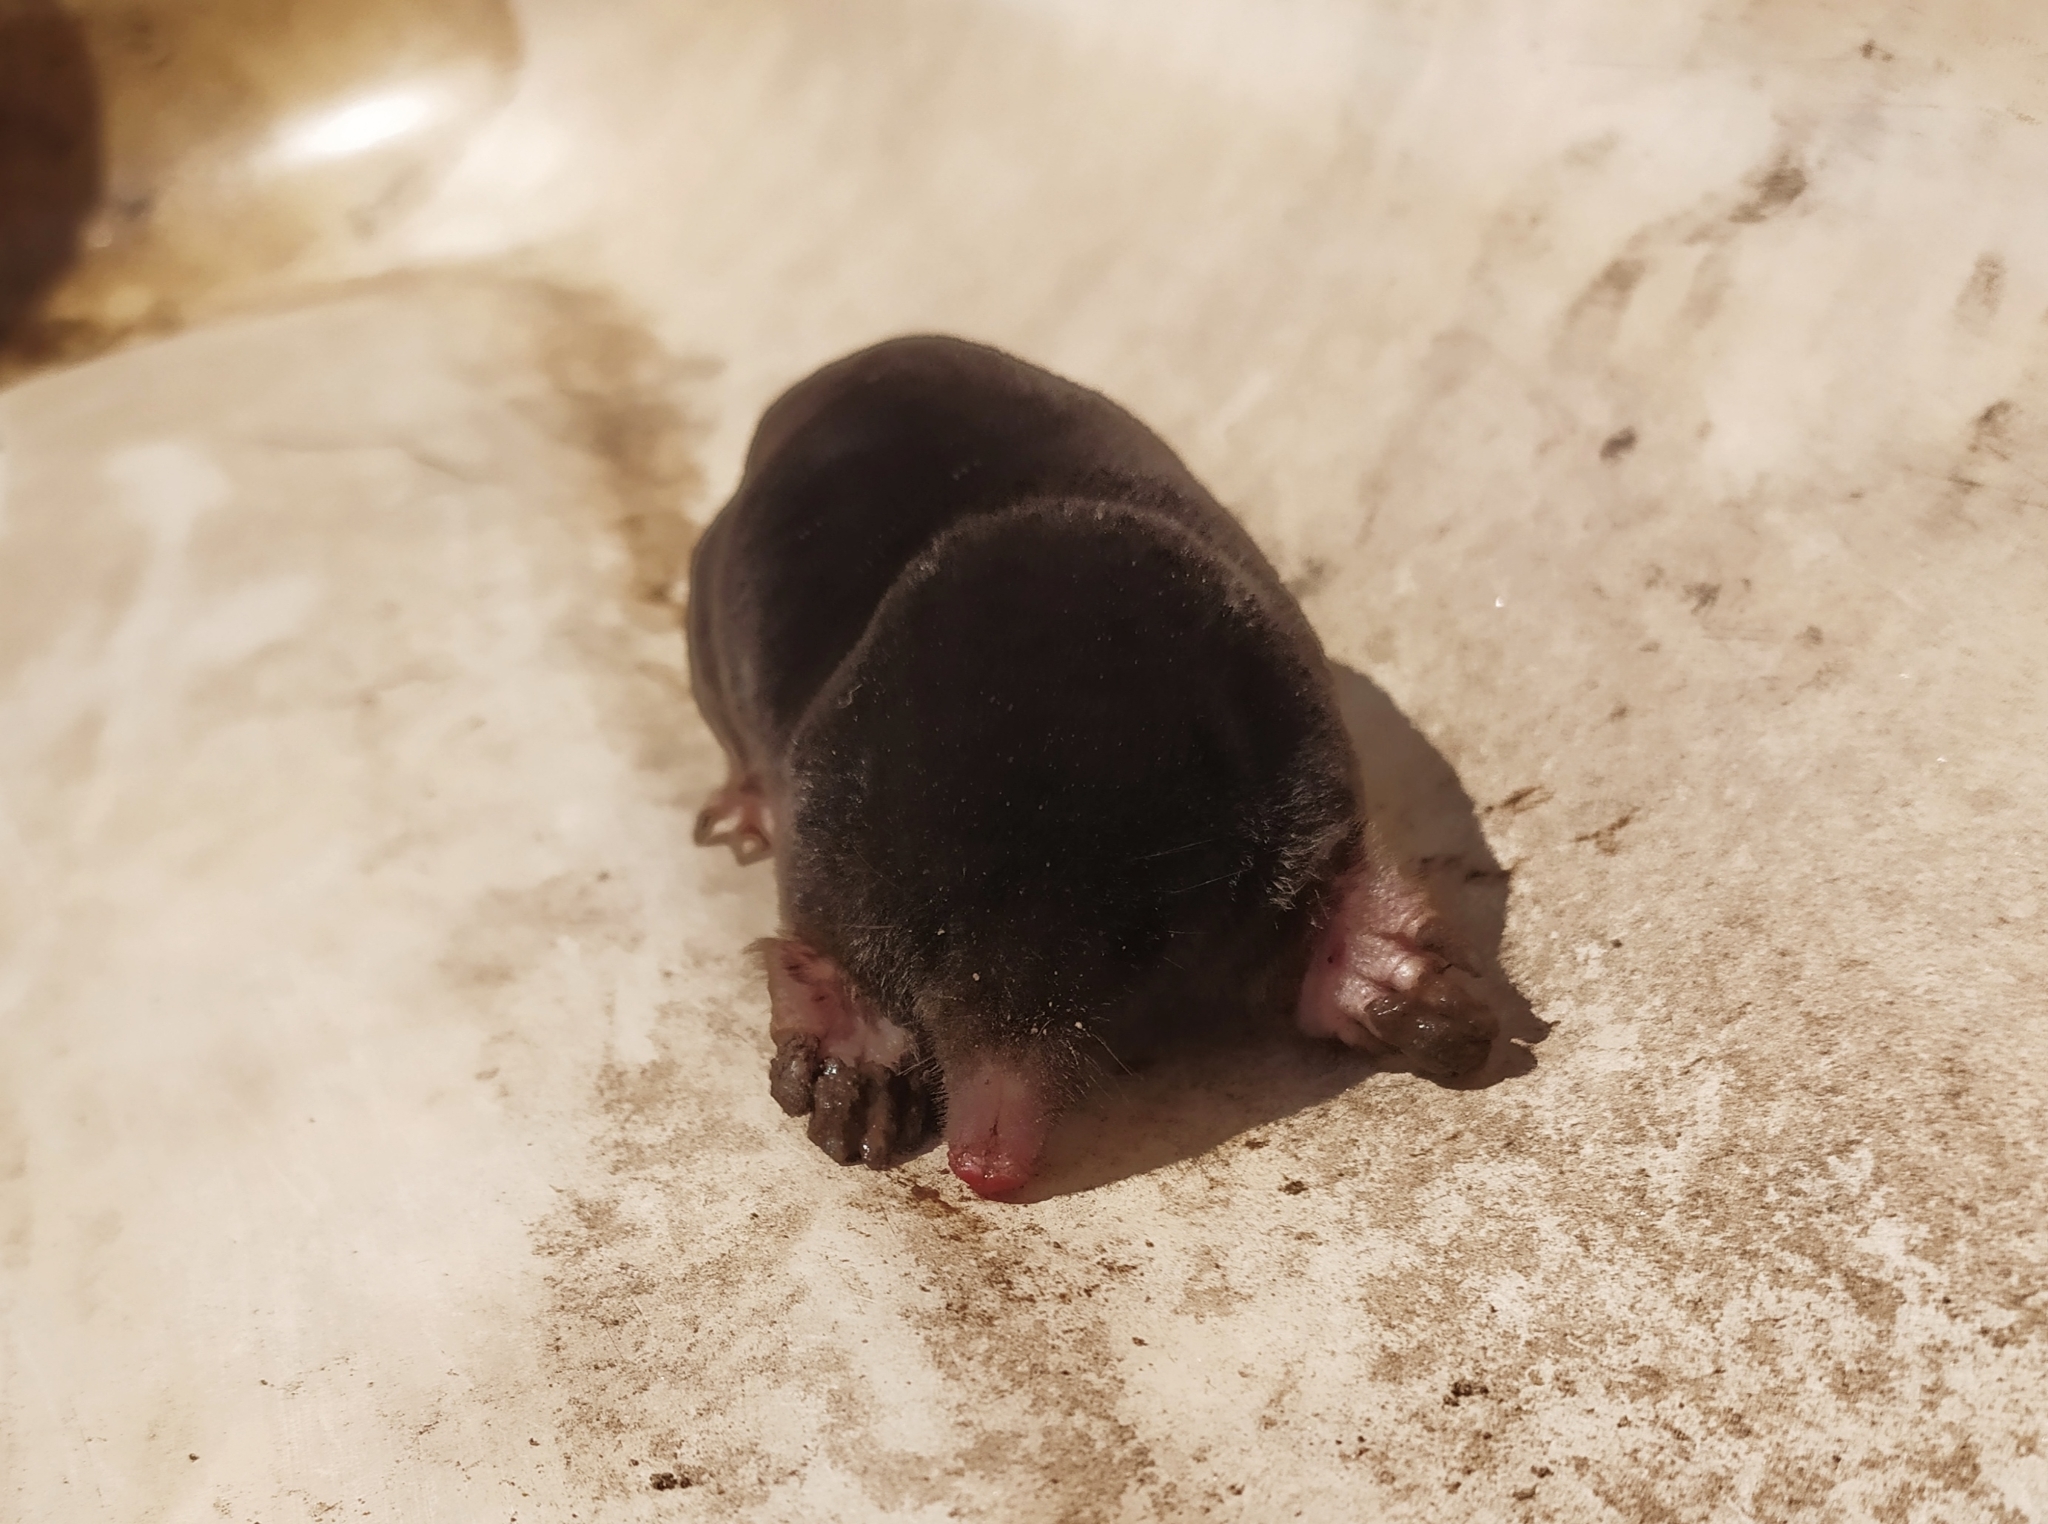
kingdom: Animalia
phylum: Chordata
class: Mammalia
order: Soricomorpha
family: Talpidae
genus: Talpa
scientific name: Talpa europaea
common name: European mole
